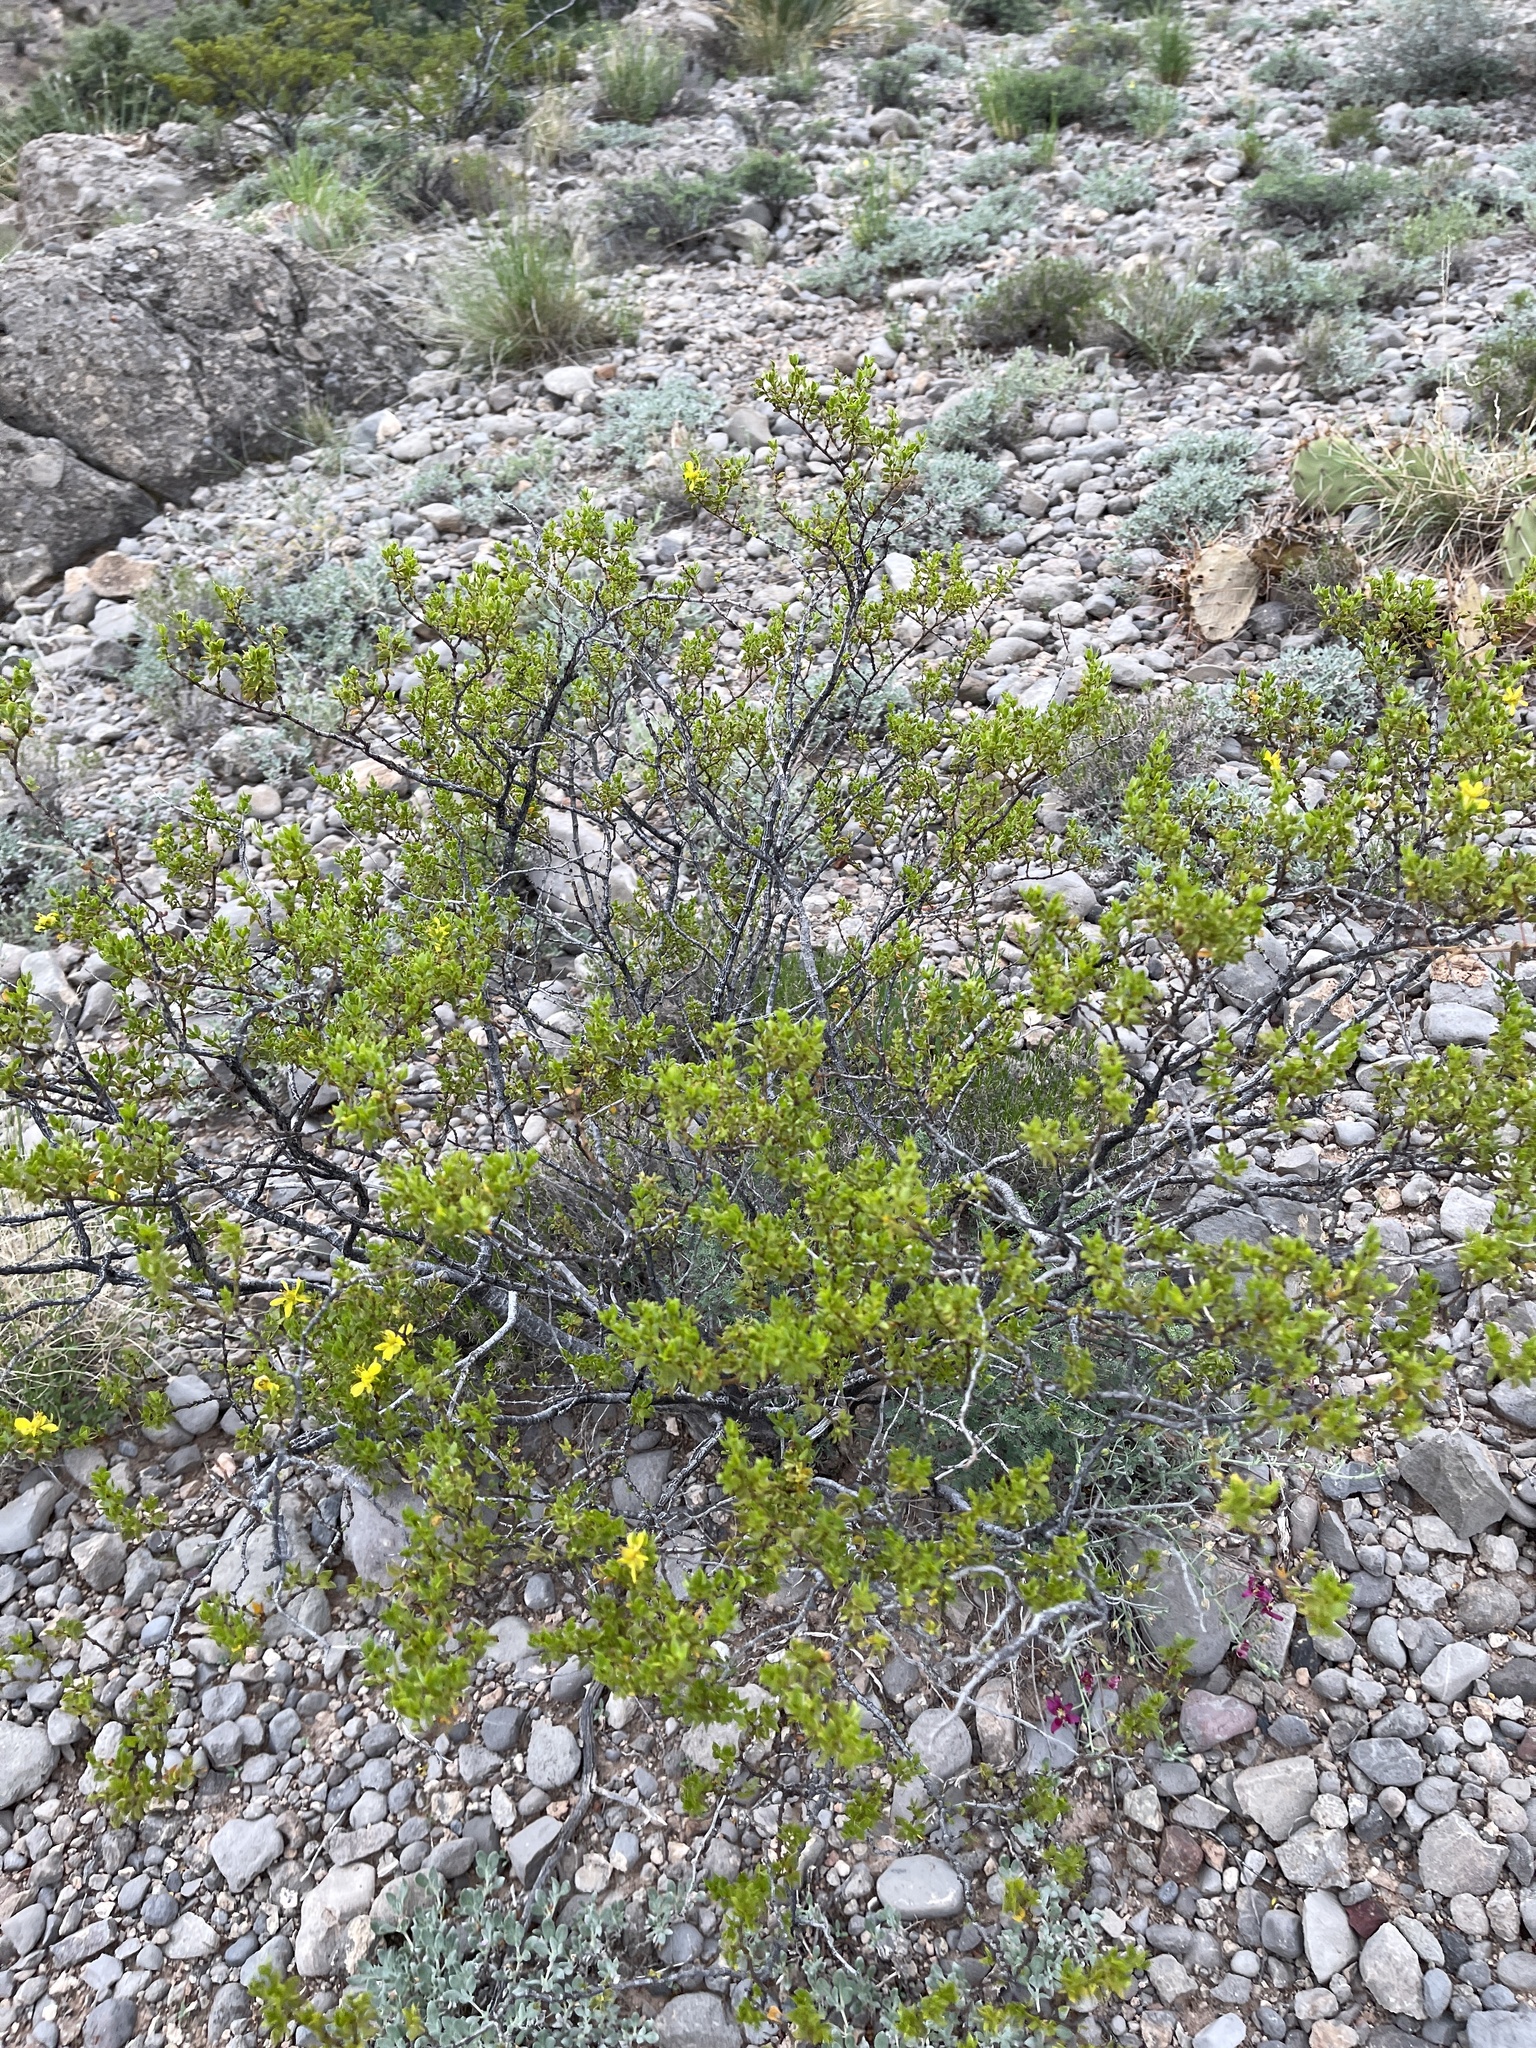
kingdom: Plantae
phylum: Tracheophyta
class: Magnoliopsida
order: Zygophyllales
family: Zygophyllaceae
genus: Larrea
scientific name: Larrea tridentata
